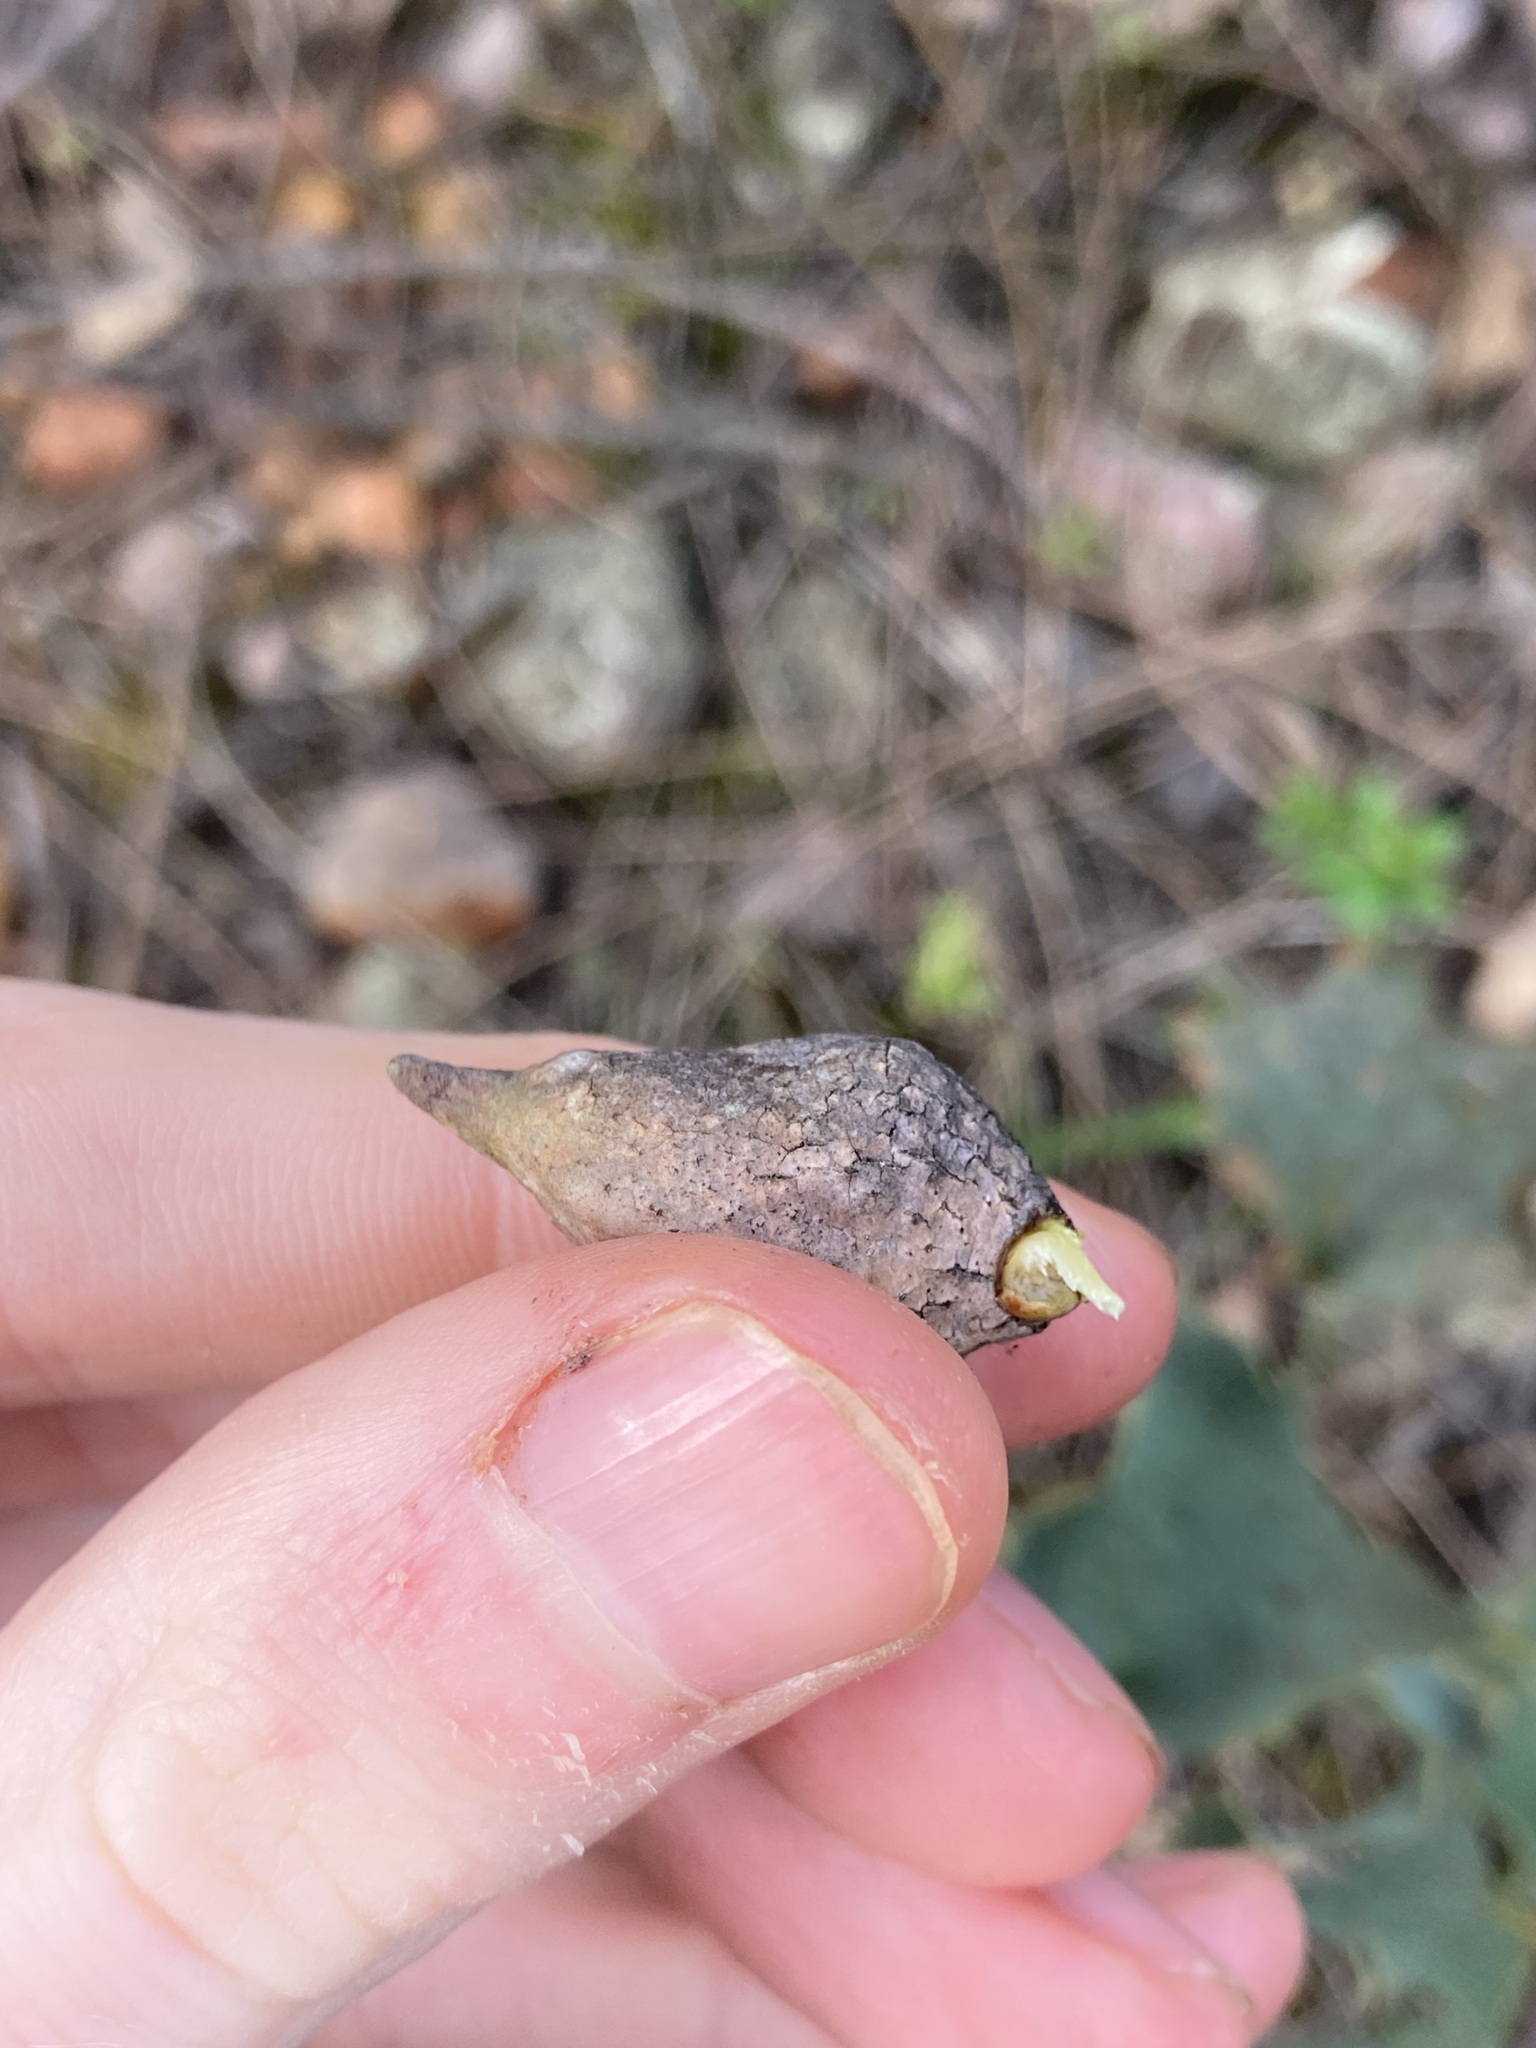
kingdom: Plantae
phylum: Tracheophyta
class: Magnoliopsida
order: Proteales
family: Proteaceae
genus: Hakea
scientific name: Hakea undulata
